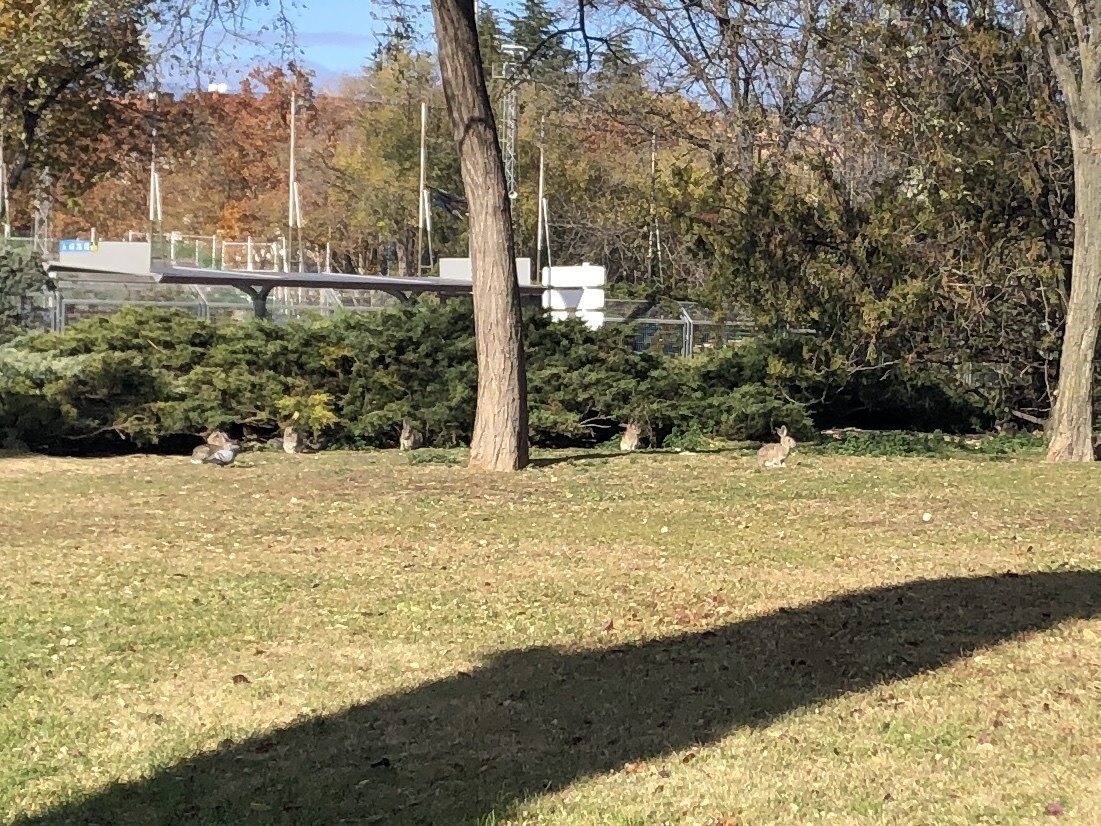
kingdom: Animalia
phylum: Chordata
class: Mammalia
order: Lagomorpha
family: Leporidae
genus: Oryctolagus
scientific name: Oryctolagus cuniculus
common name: European rabbit
